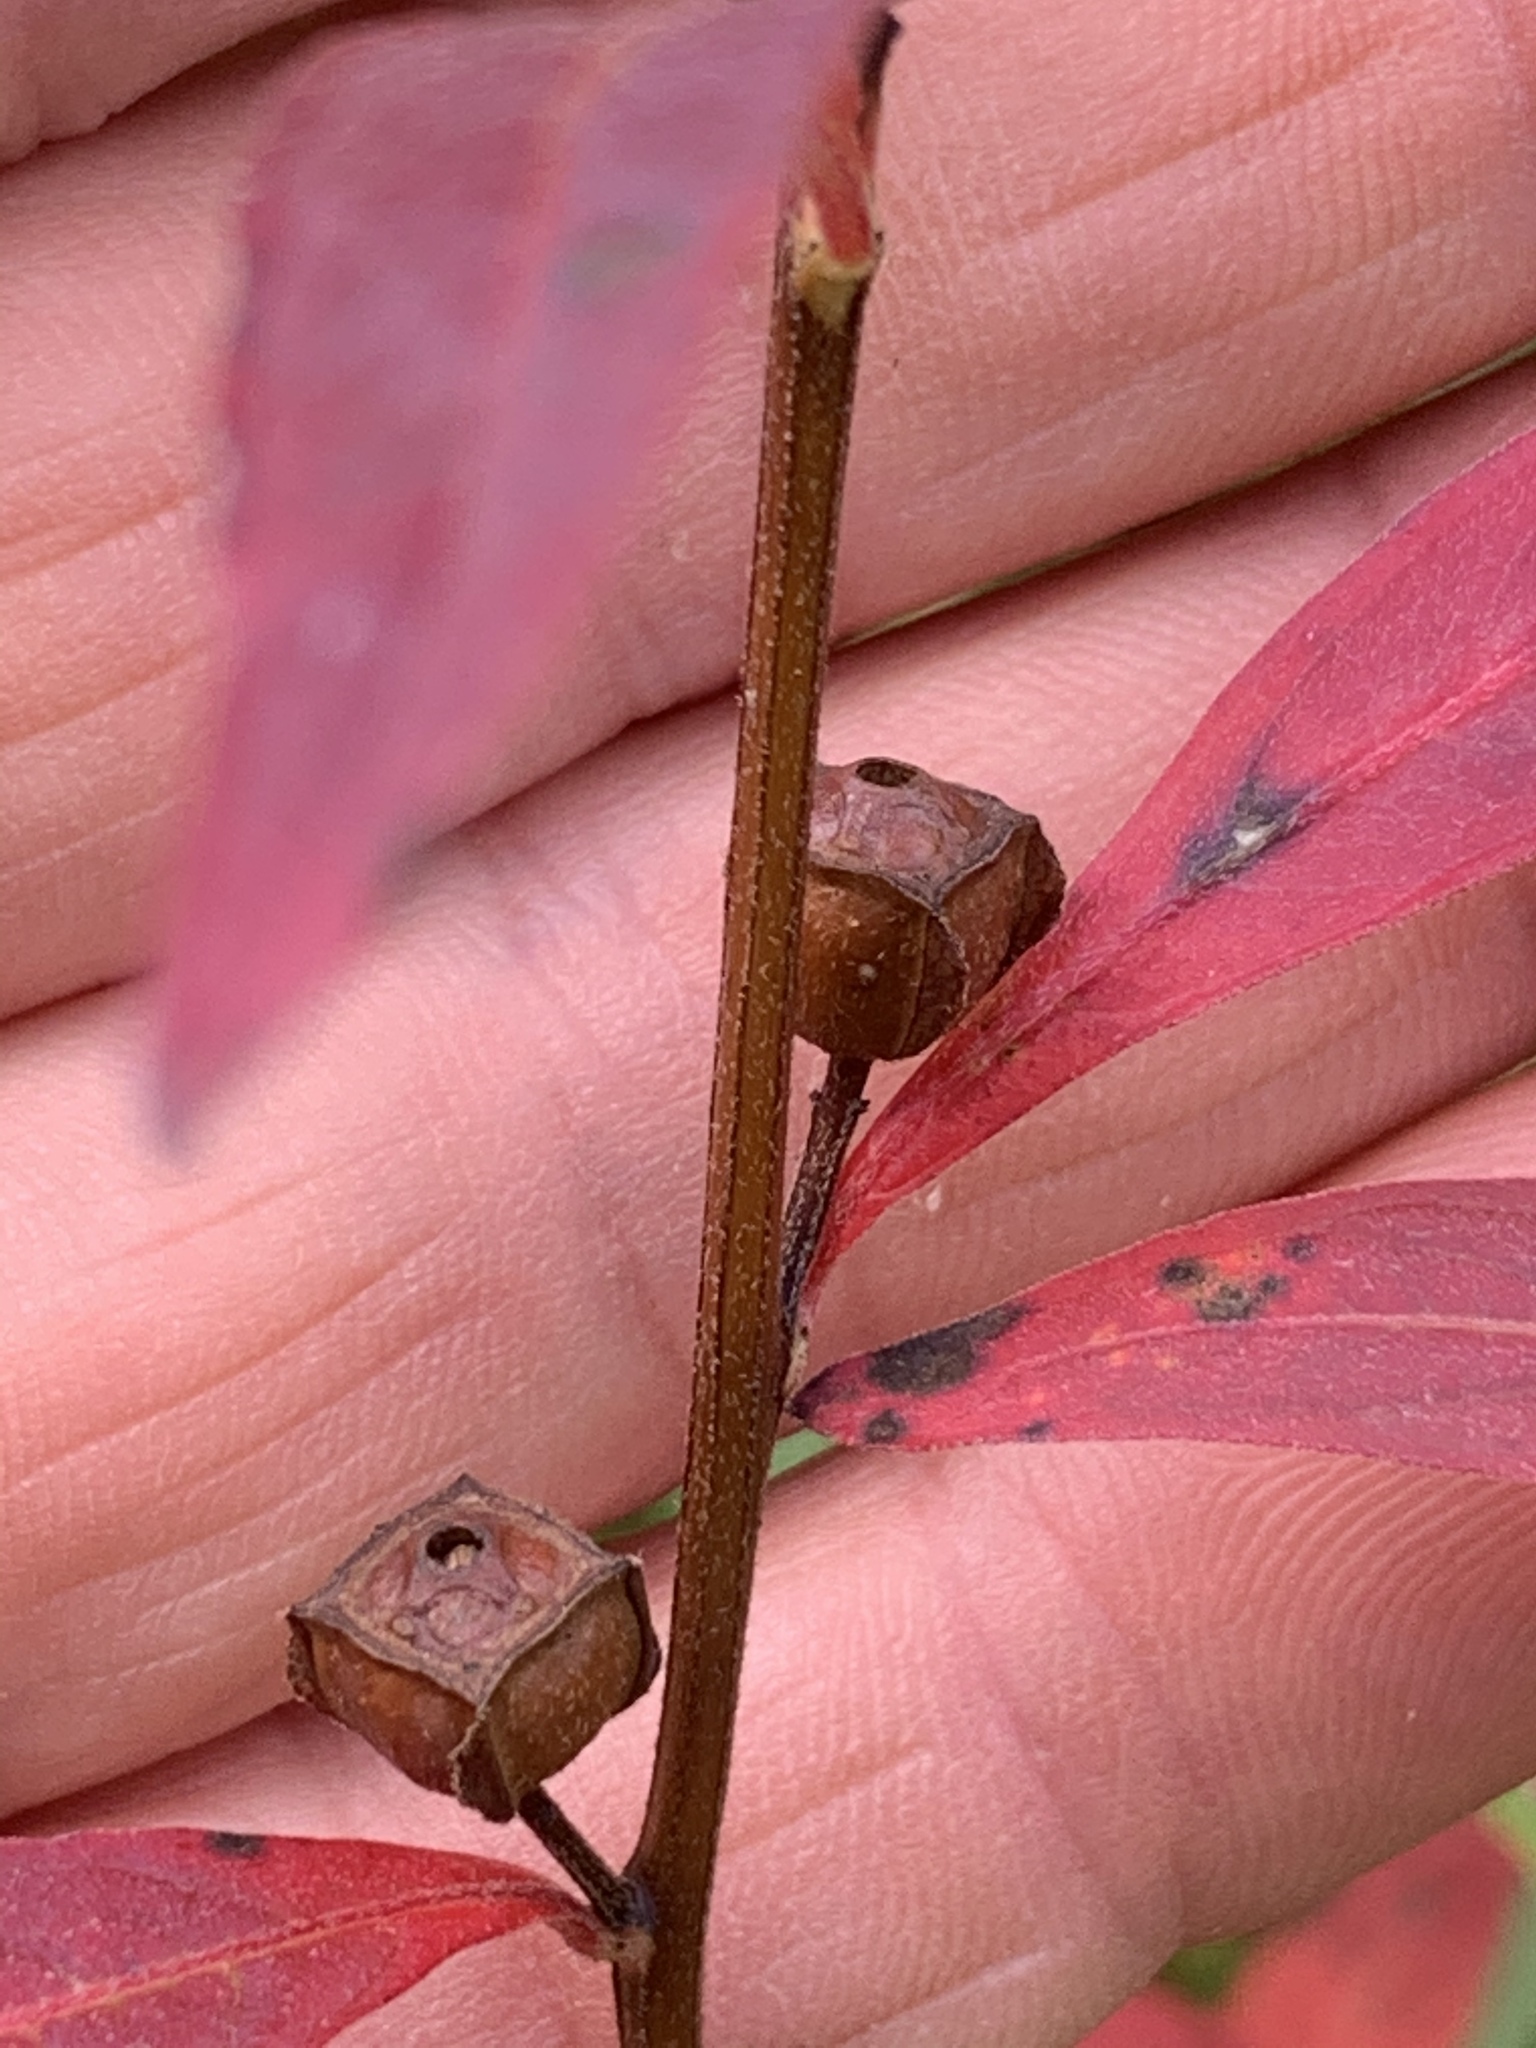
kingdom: Plantae
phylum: Tracheophyta
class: Magnoliopsida
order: Myrtales
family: Onagraceae
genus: Ludwigia
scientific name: Ludwigia alternifolia
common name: Rattlebox
